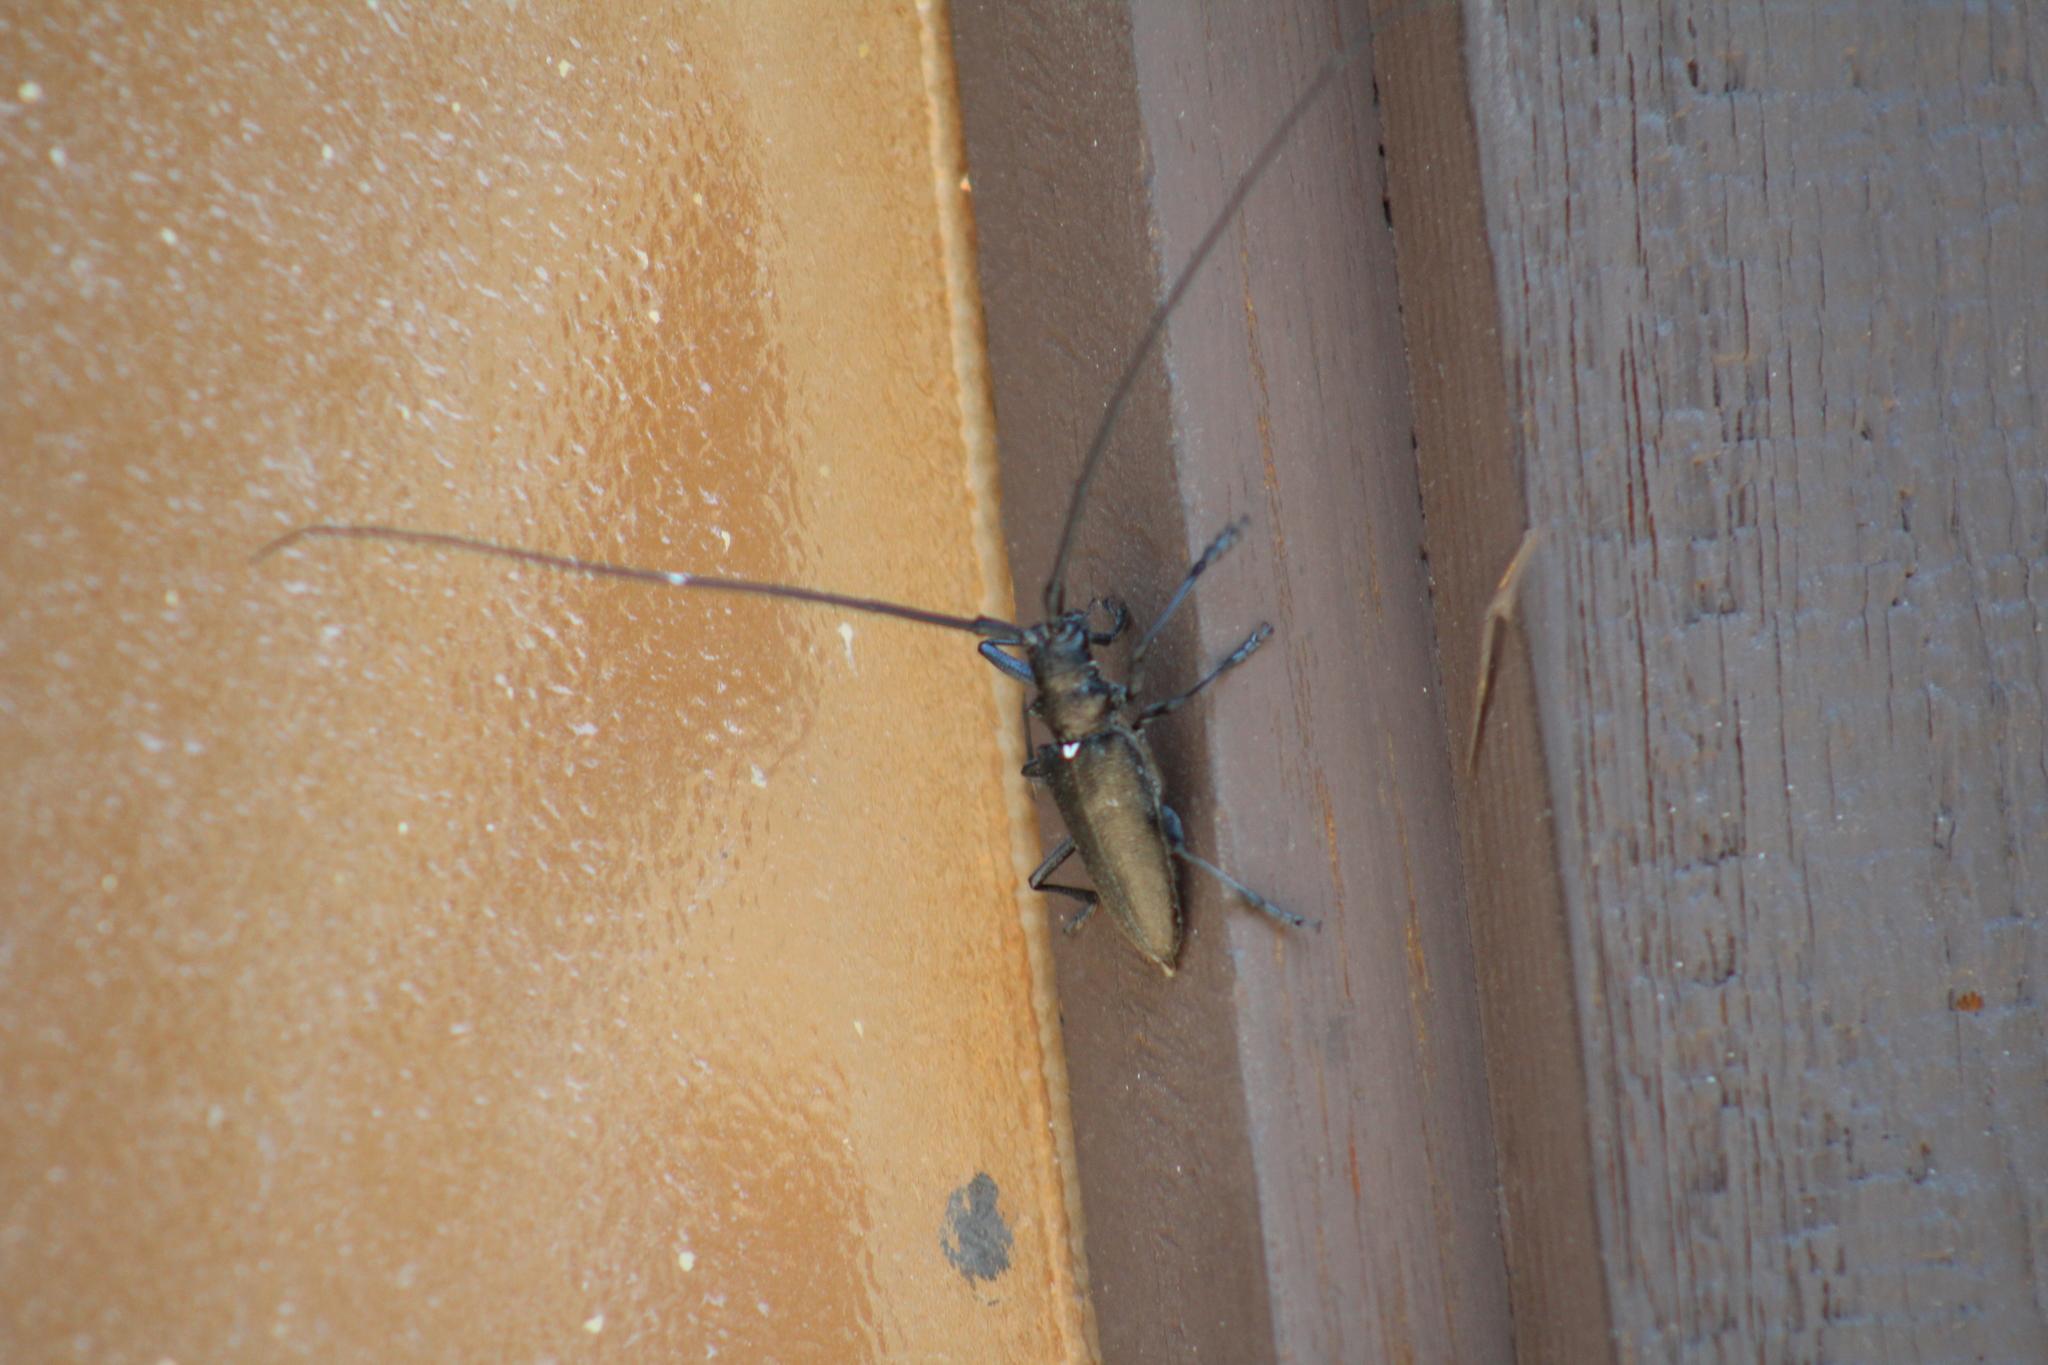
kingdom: Animalia
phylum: Arthropoda
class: Insecta
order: Coleoptera
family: Cerambycidae
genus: Monochamus
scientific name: Monochamus scutellatus
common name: White-spotted sawyer beetle
